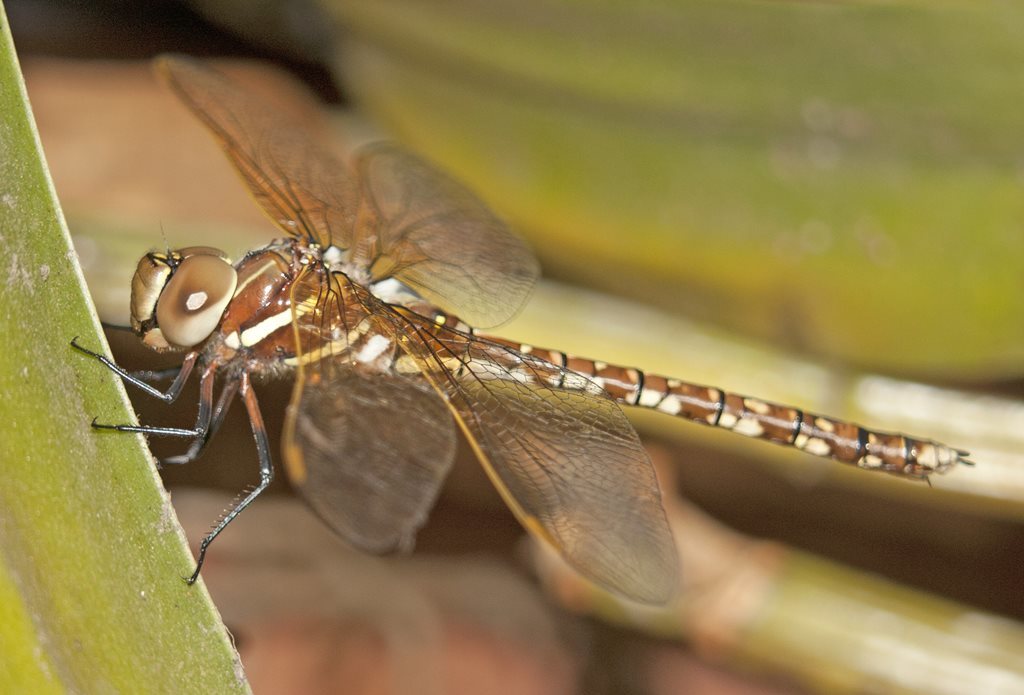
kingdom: Animalia
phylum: Arthropoda
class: Insecta
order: Odonata
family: Aeshnidae
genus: Aeshna
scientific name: Aeshna brevistyla
